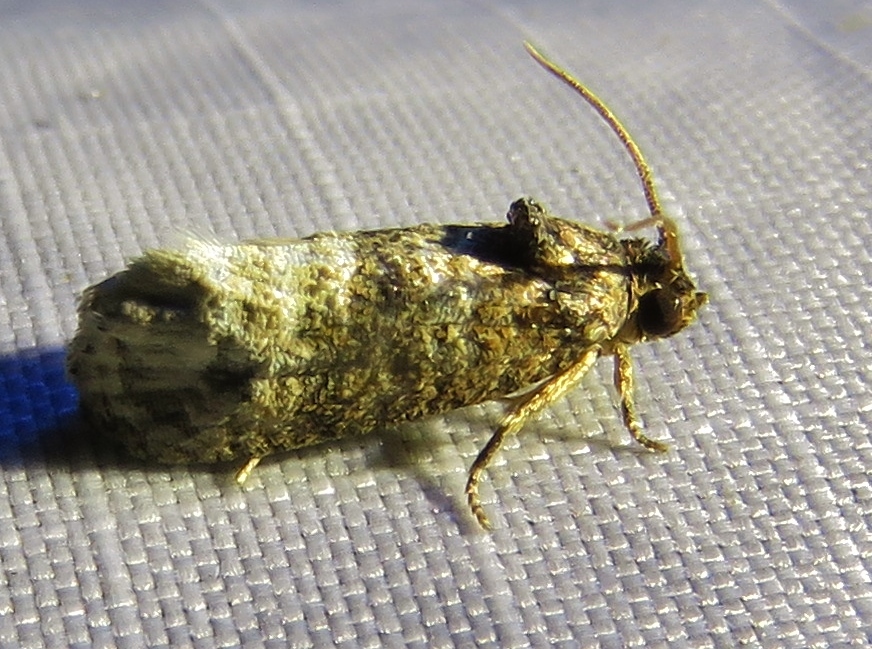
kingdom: Animalia
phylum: Arthropoda
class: Insecta
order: Lepidoptera
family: Tortricidae
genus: Ecdytolopha
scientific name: Ecdytolopha mana
